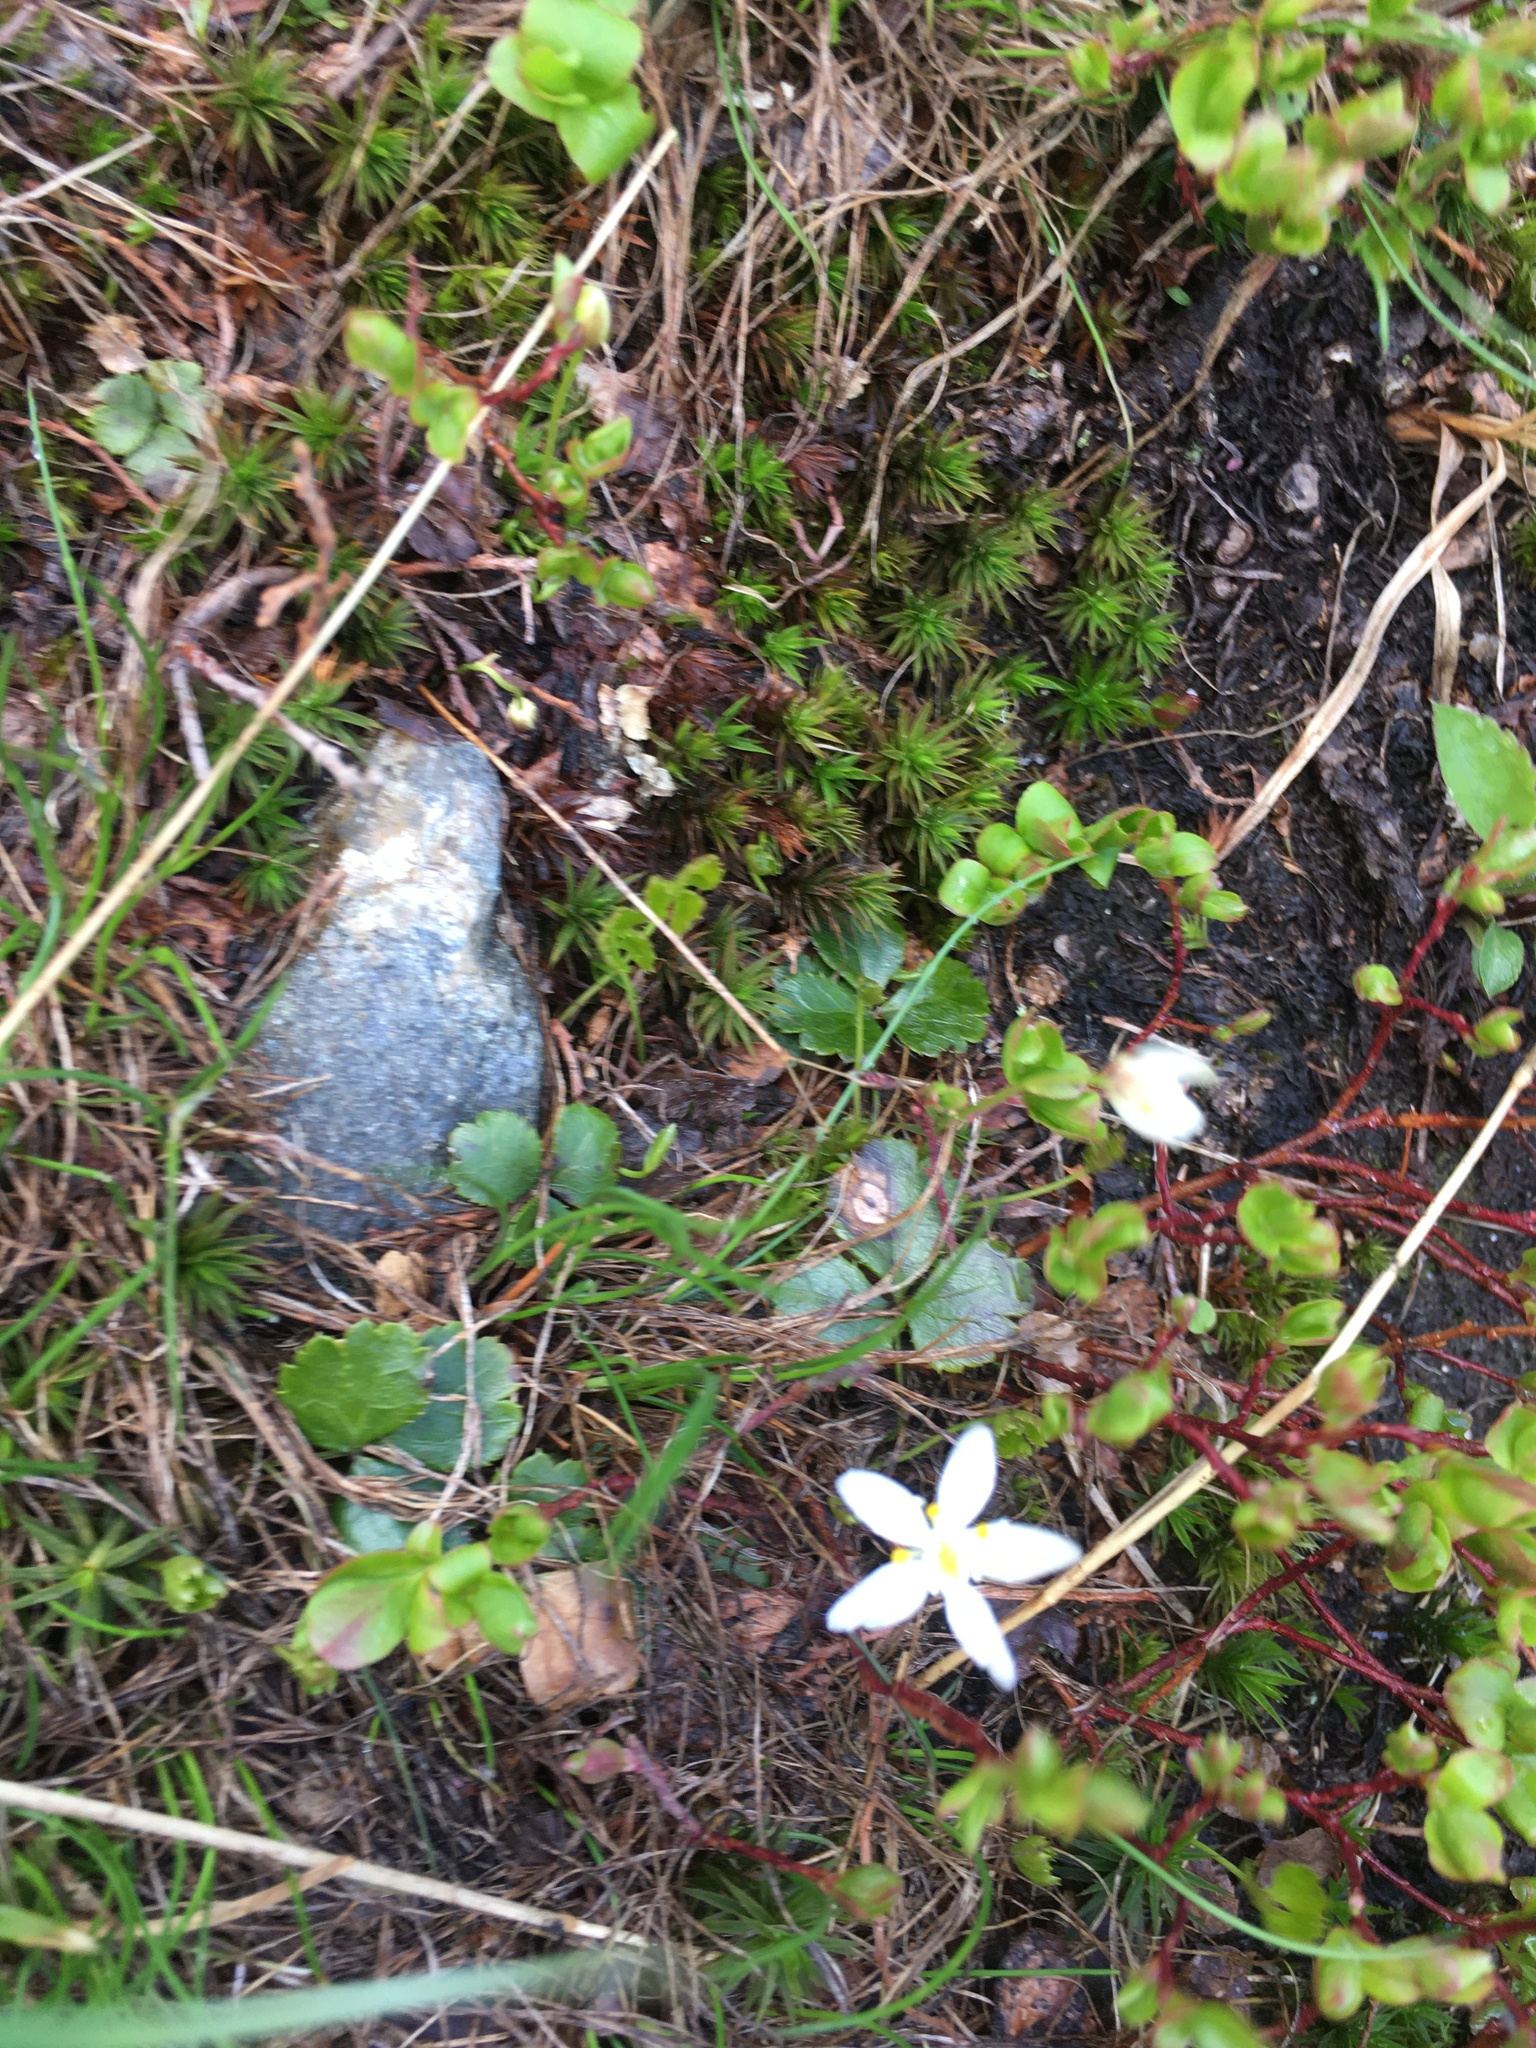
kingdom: Plantae
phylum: Tracheophyta
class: Magnoliopsida
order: Ranunculales
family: Ranunculaceae
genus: Coptis
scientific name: Coptis trifolia
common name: Canker-root
